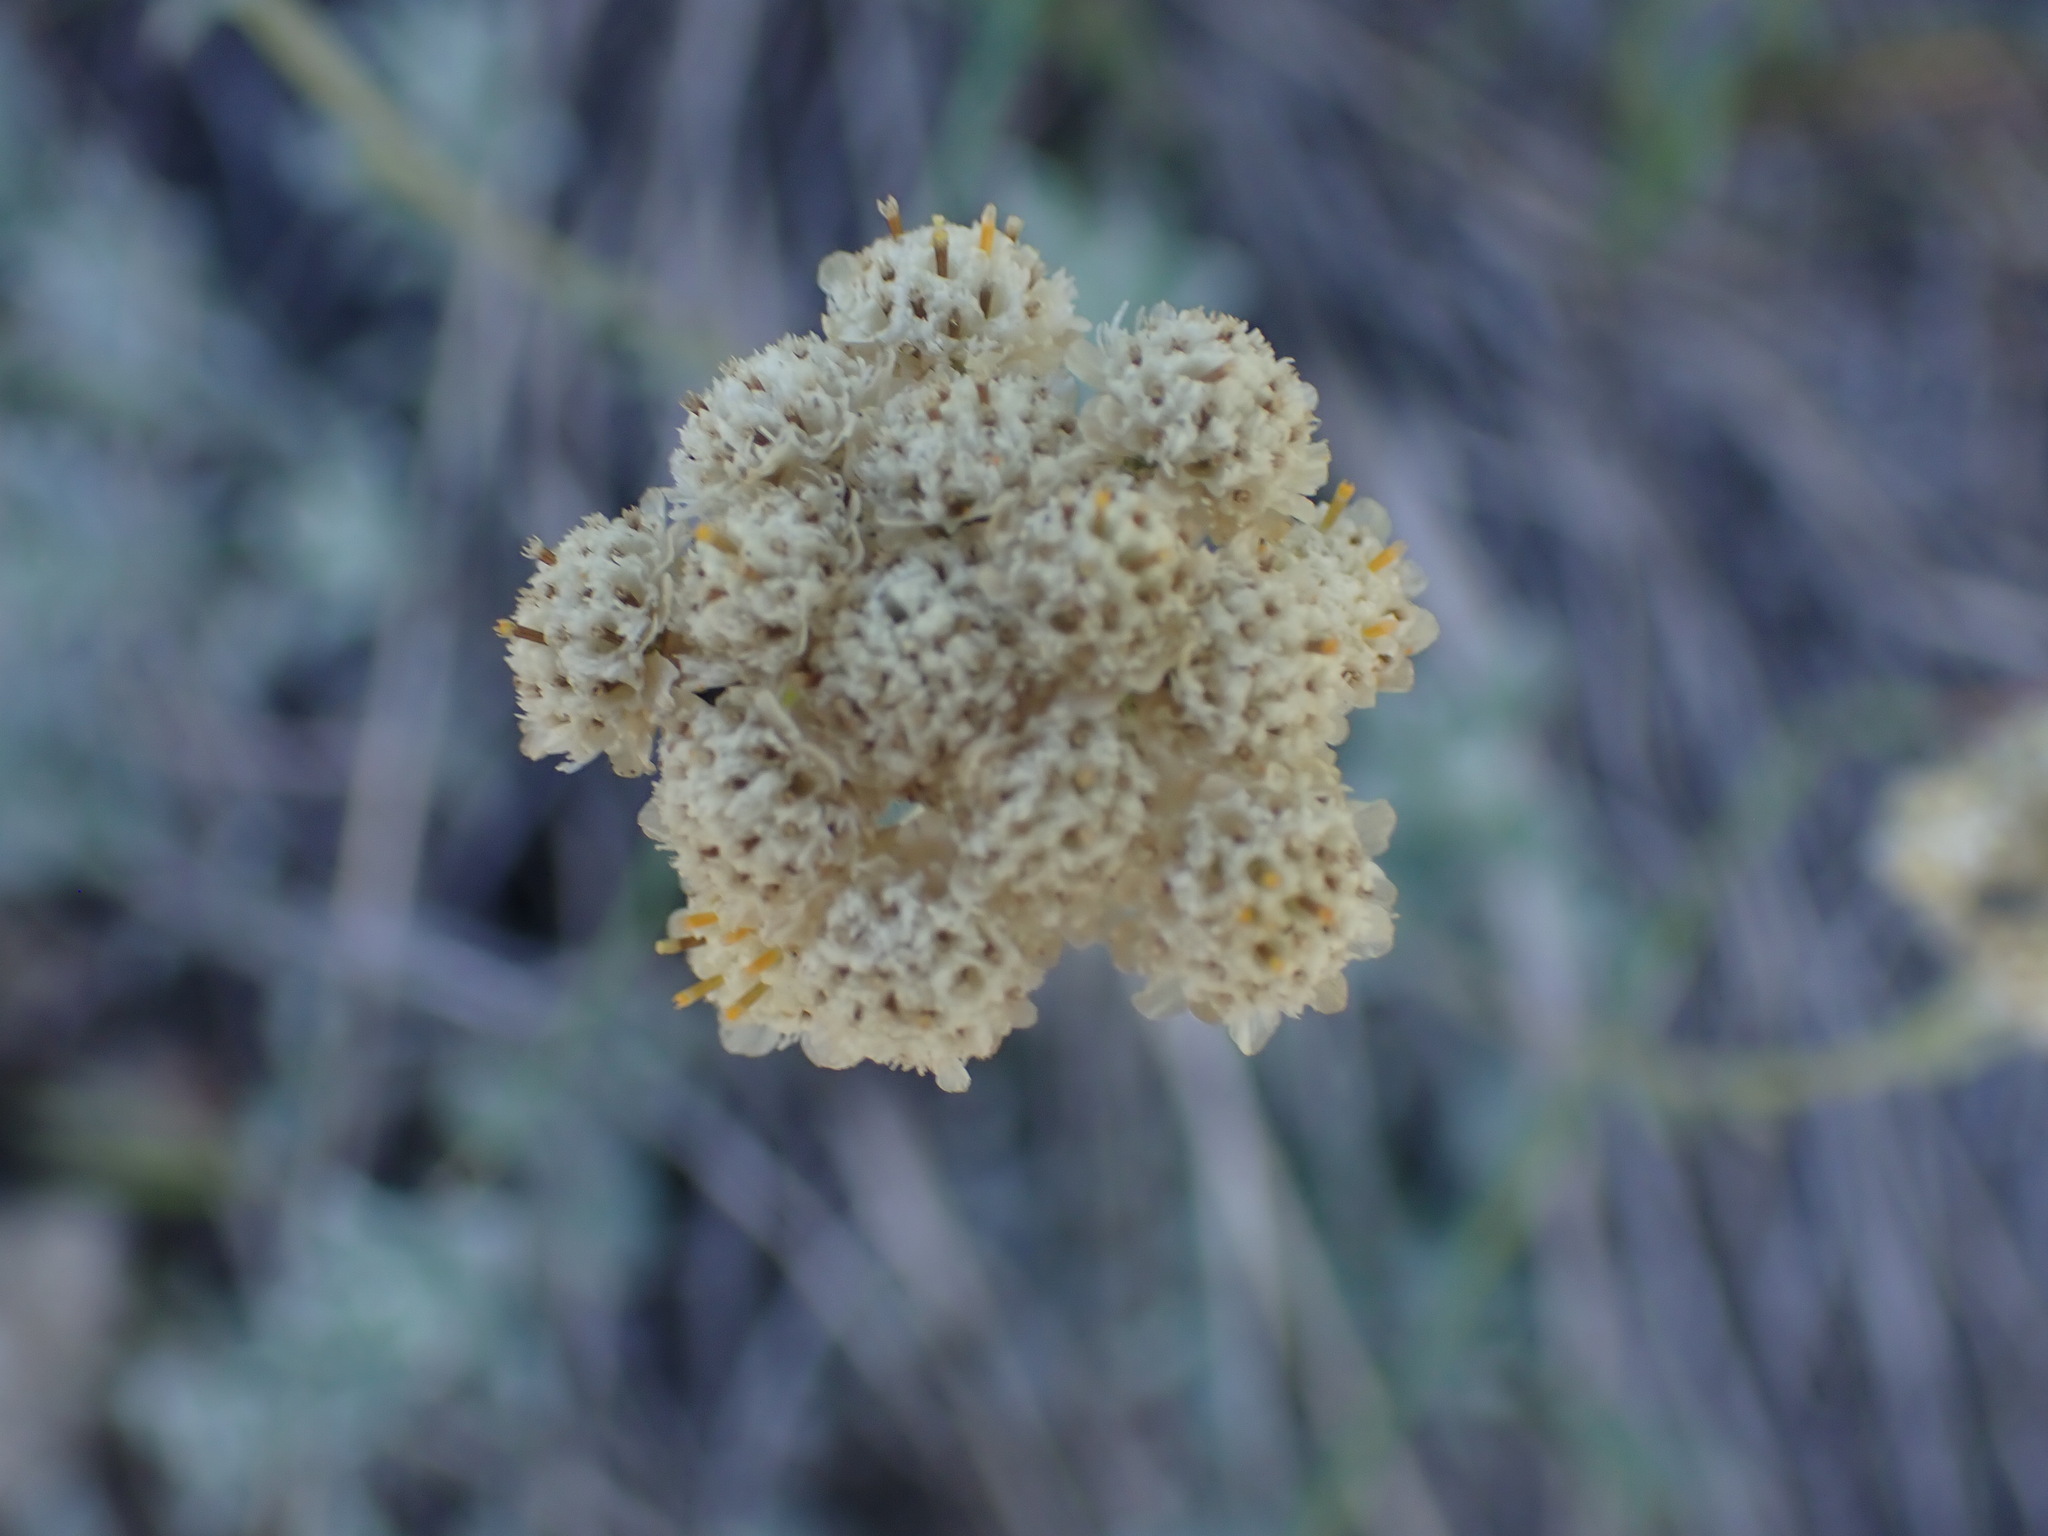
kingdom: Plantae
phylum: Tracheophyta
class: Magnoliopsida
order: Asterales
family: Asteraceae
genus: Antennaria
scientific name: Antennaria umbrinella
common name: Brown pussytoes
